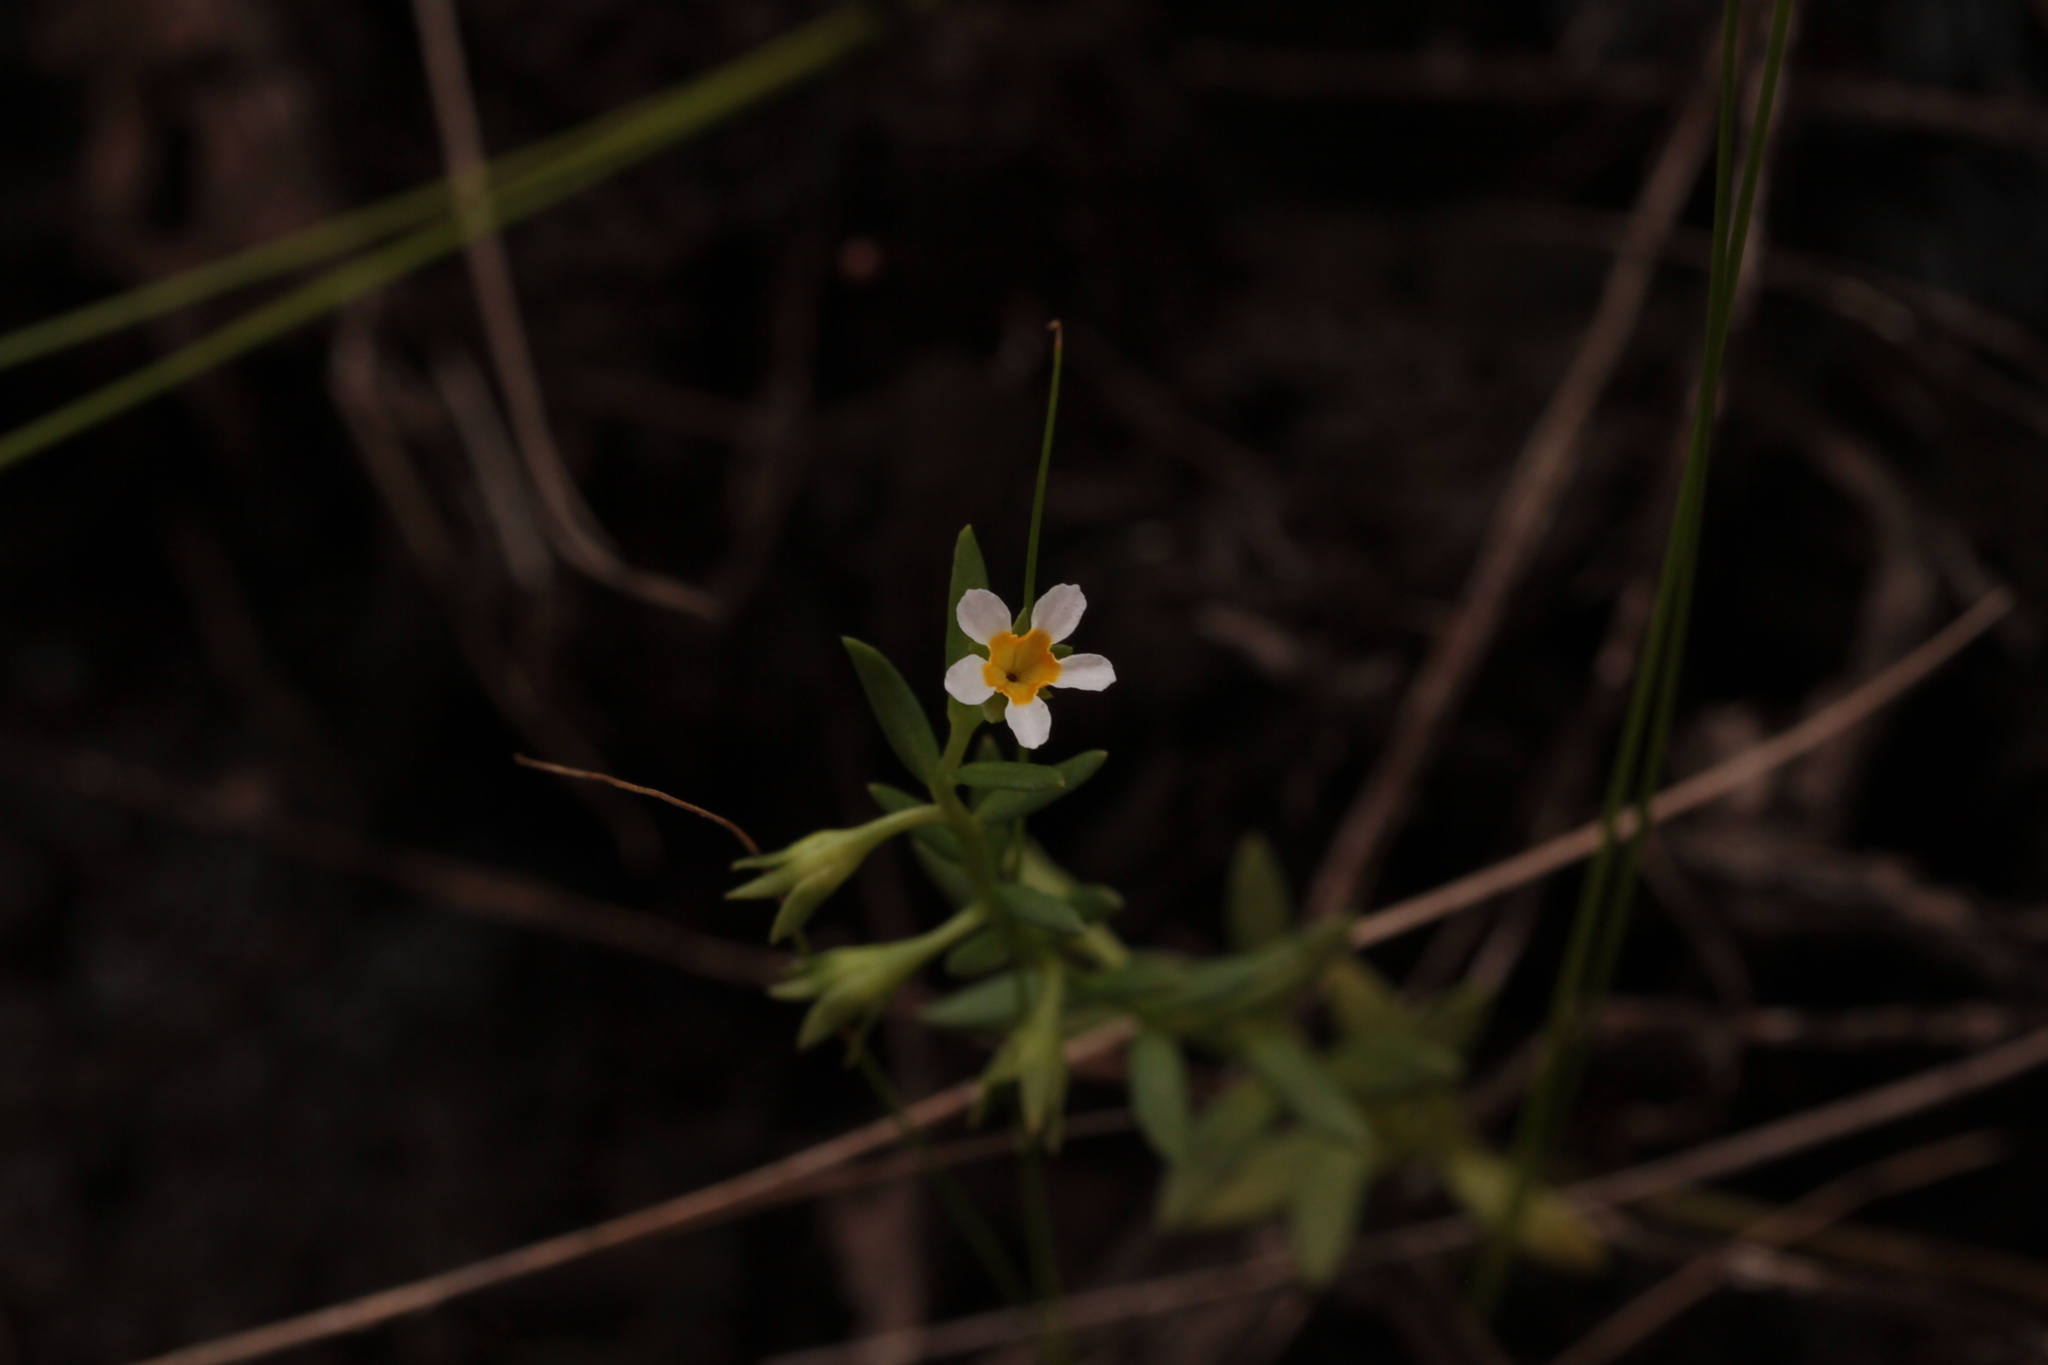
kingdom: Plantae
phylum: Tracheophyta
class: Magnoliopsida
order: Boraginales
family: Heliotropiaceae
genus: Euploca
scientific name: Euploca lagoensis
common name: Antilles heliotrope
